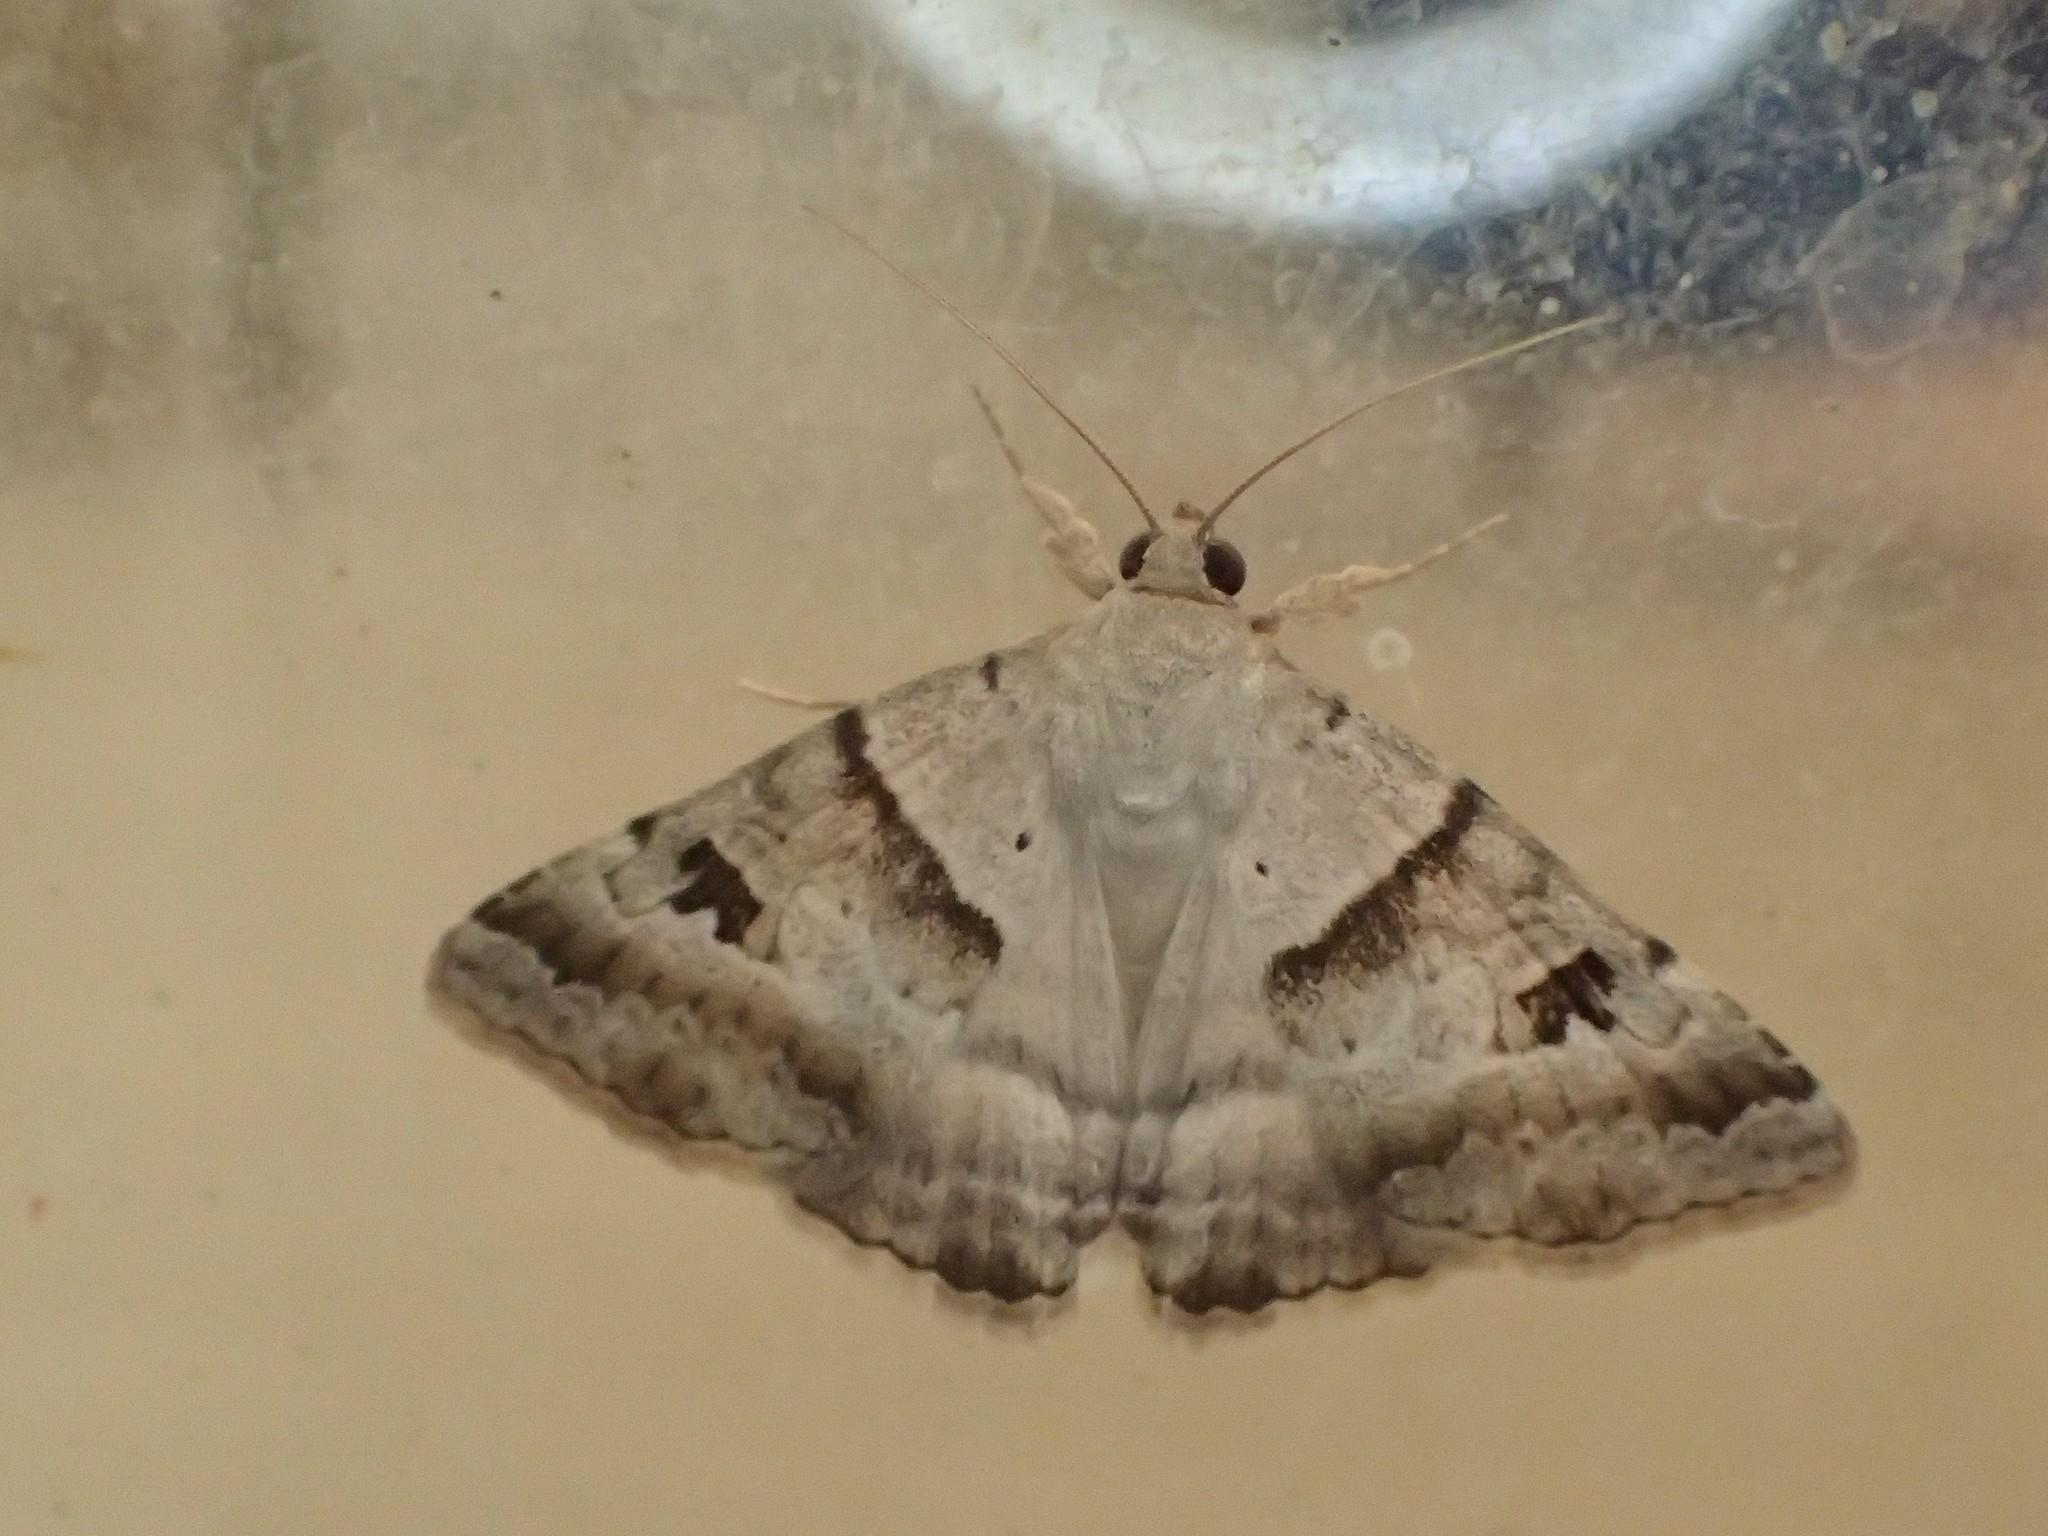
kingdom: Animalia
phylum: Arthropoda
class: Insecta
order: Lepidoptera
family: Erebidae
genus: Mocis
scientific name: Mocis alterna
